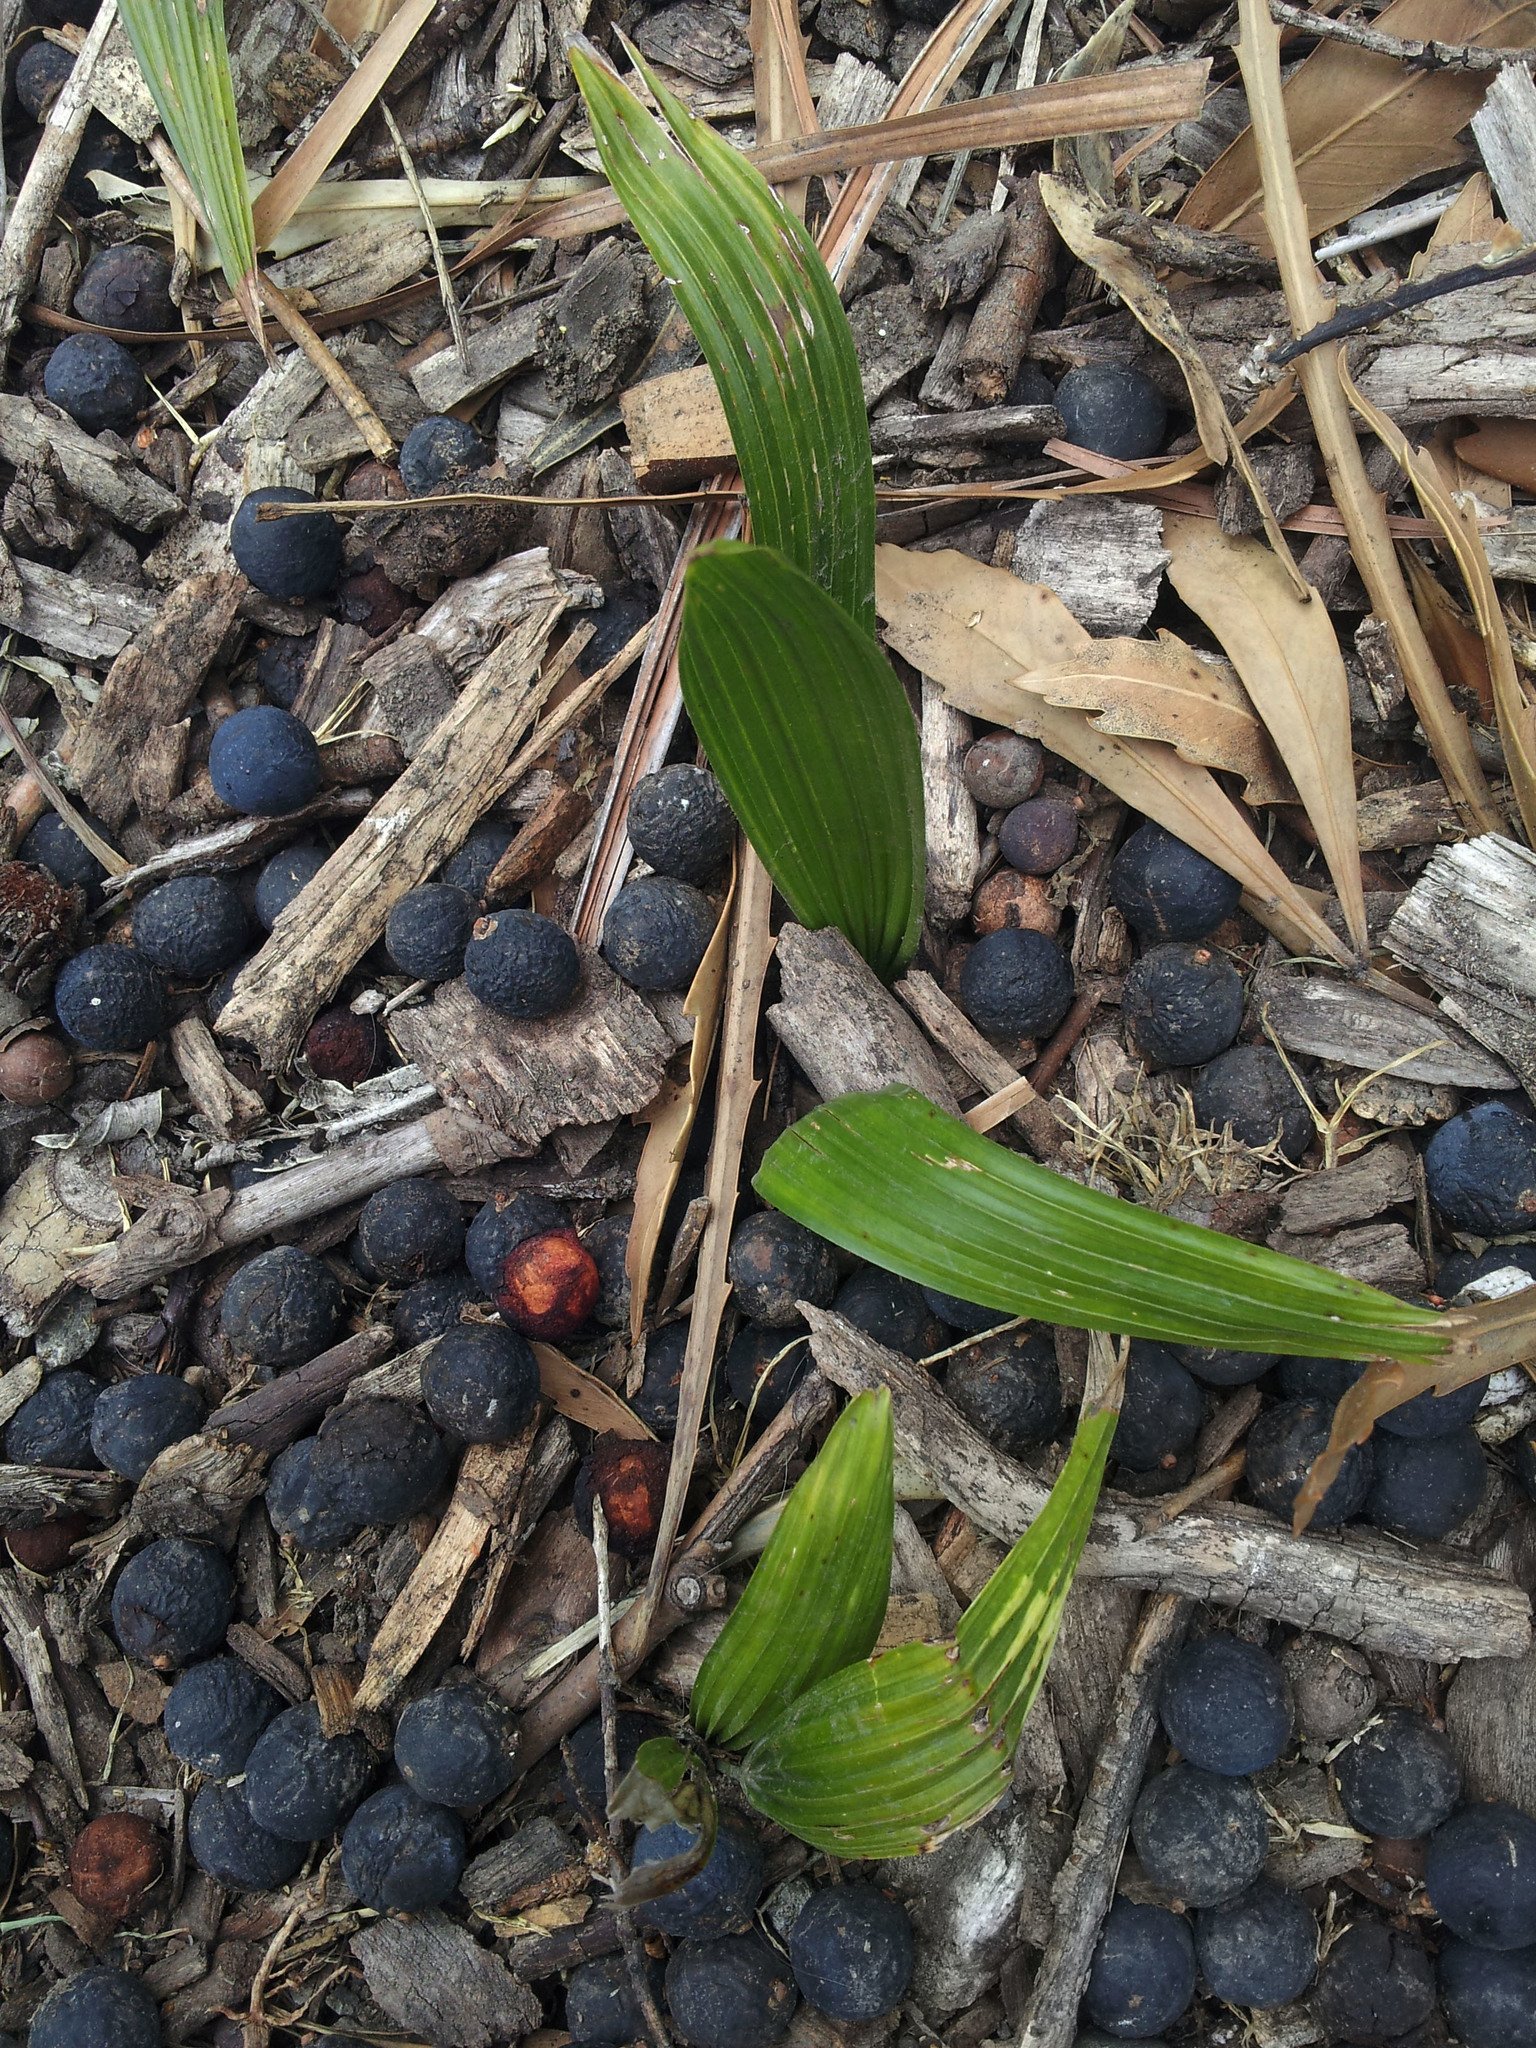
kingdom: Plantae
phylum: Tracheophyta
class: Liliopsida
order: Arecales
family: Arecaceae
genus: Livistona
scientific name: Livistona australis
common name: Cabbage fan palm
